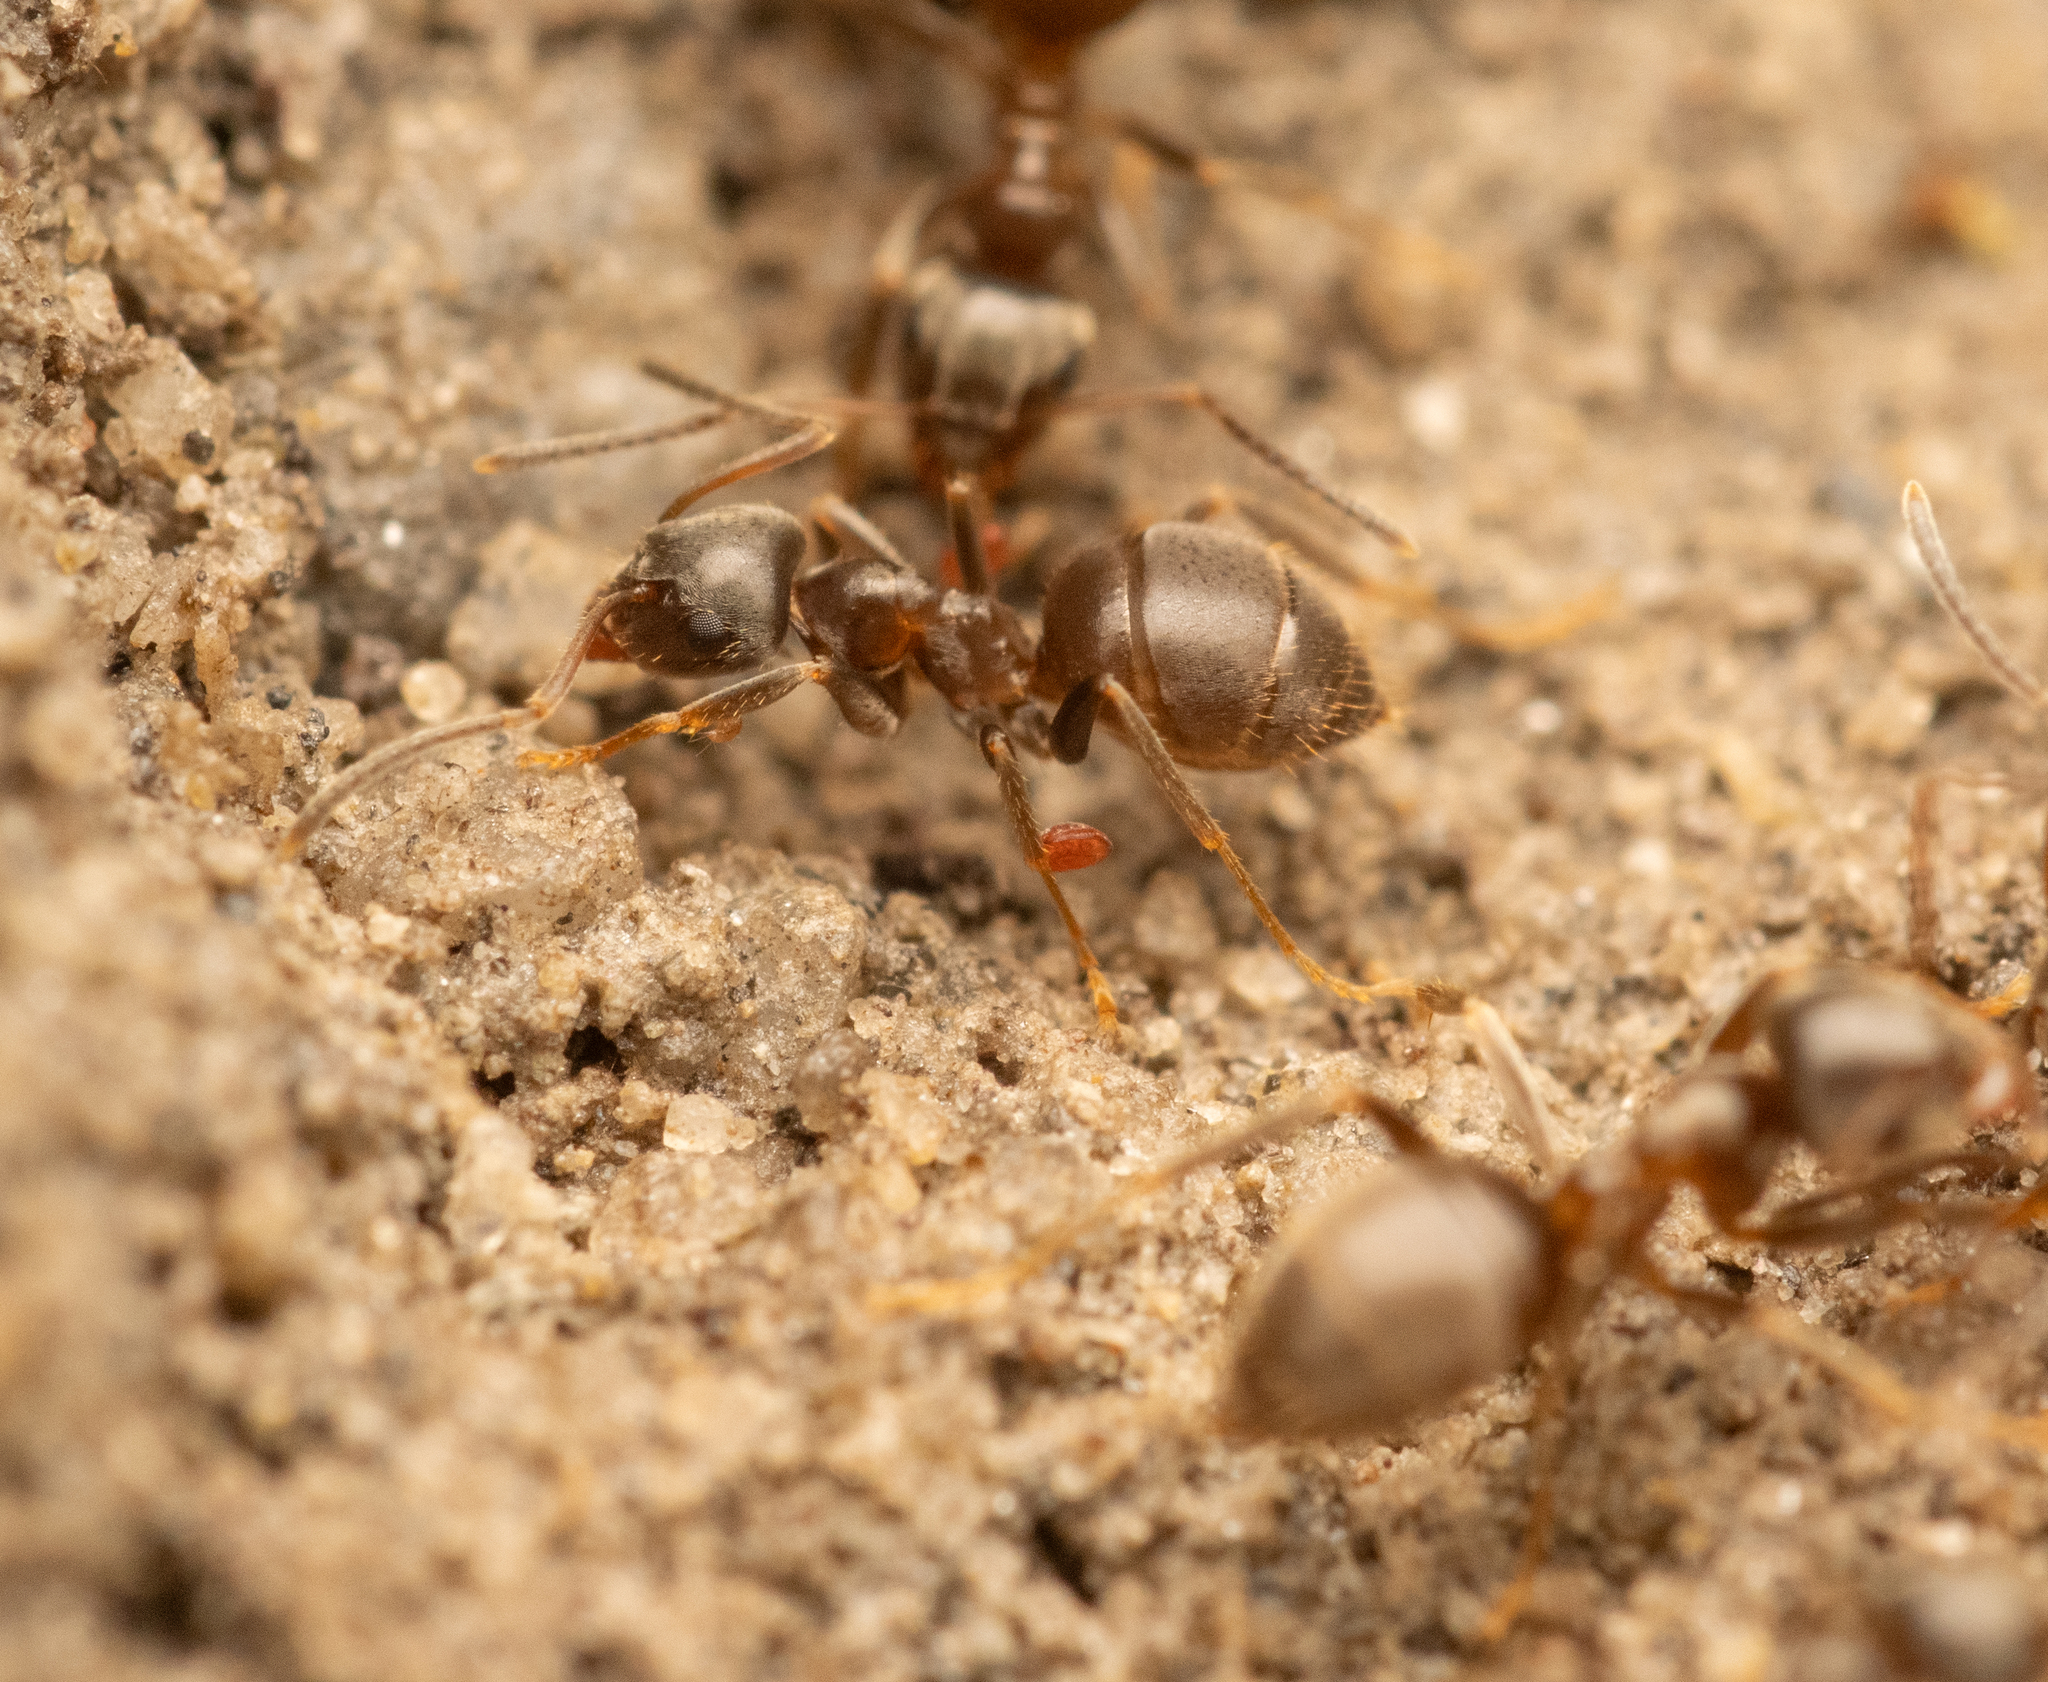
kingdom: Animalia
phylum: Arthropoda
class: Insecta
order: Orthoptera
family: Myrmecophilidae
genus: Myrmecophilus
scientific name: Myrmecophilus acervorum
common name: Ants-nest cricket
